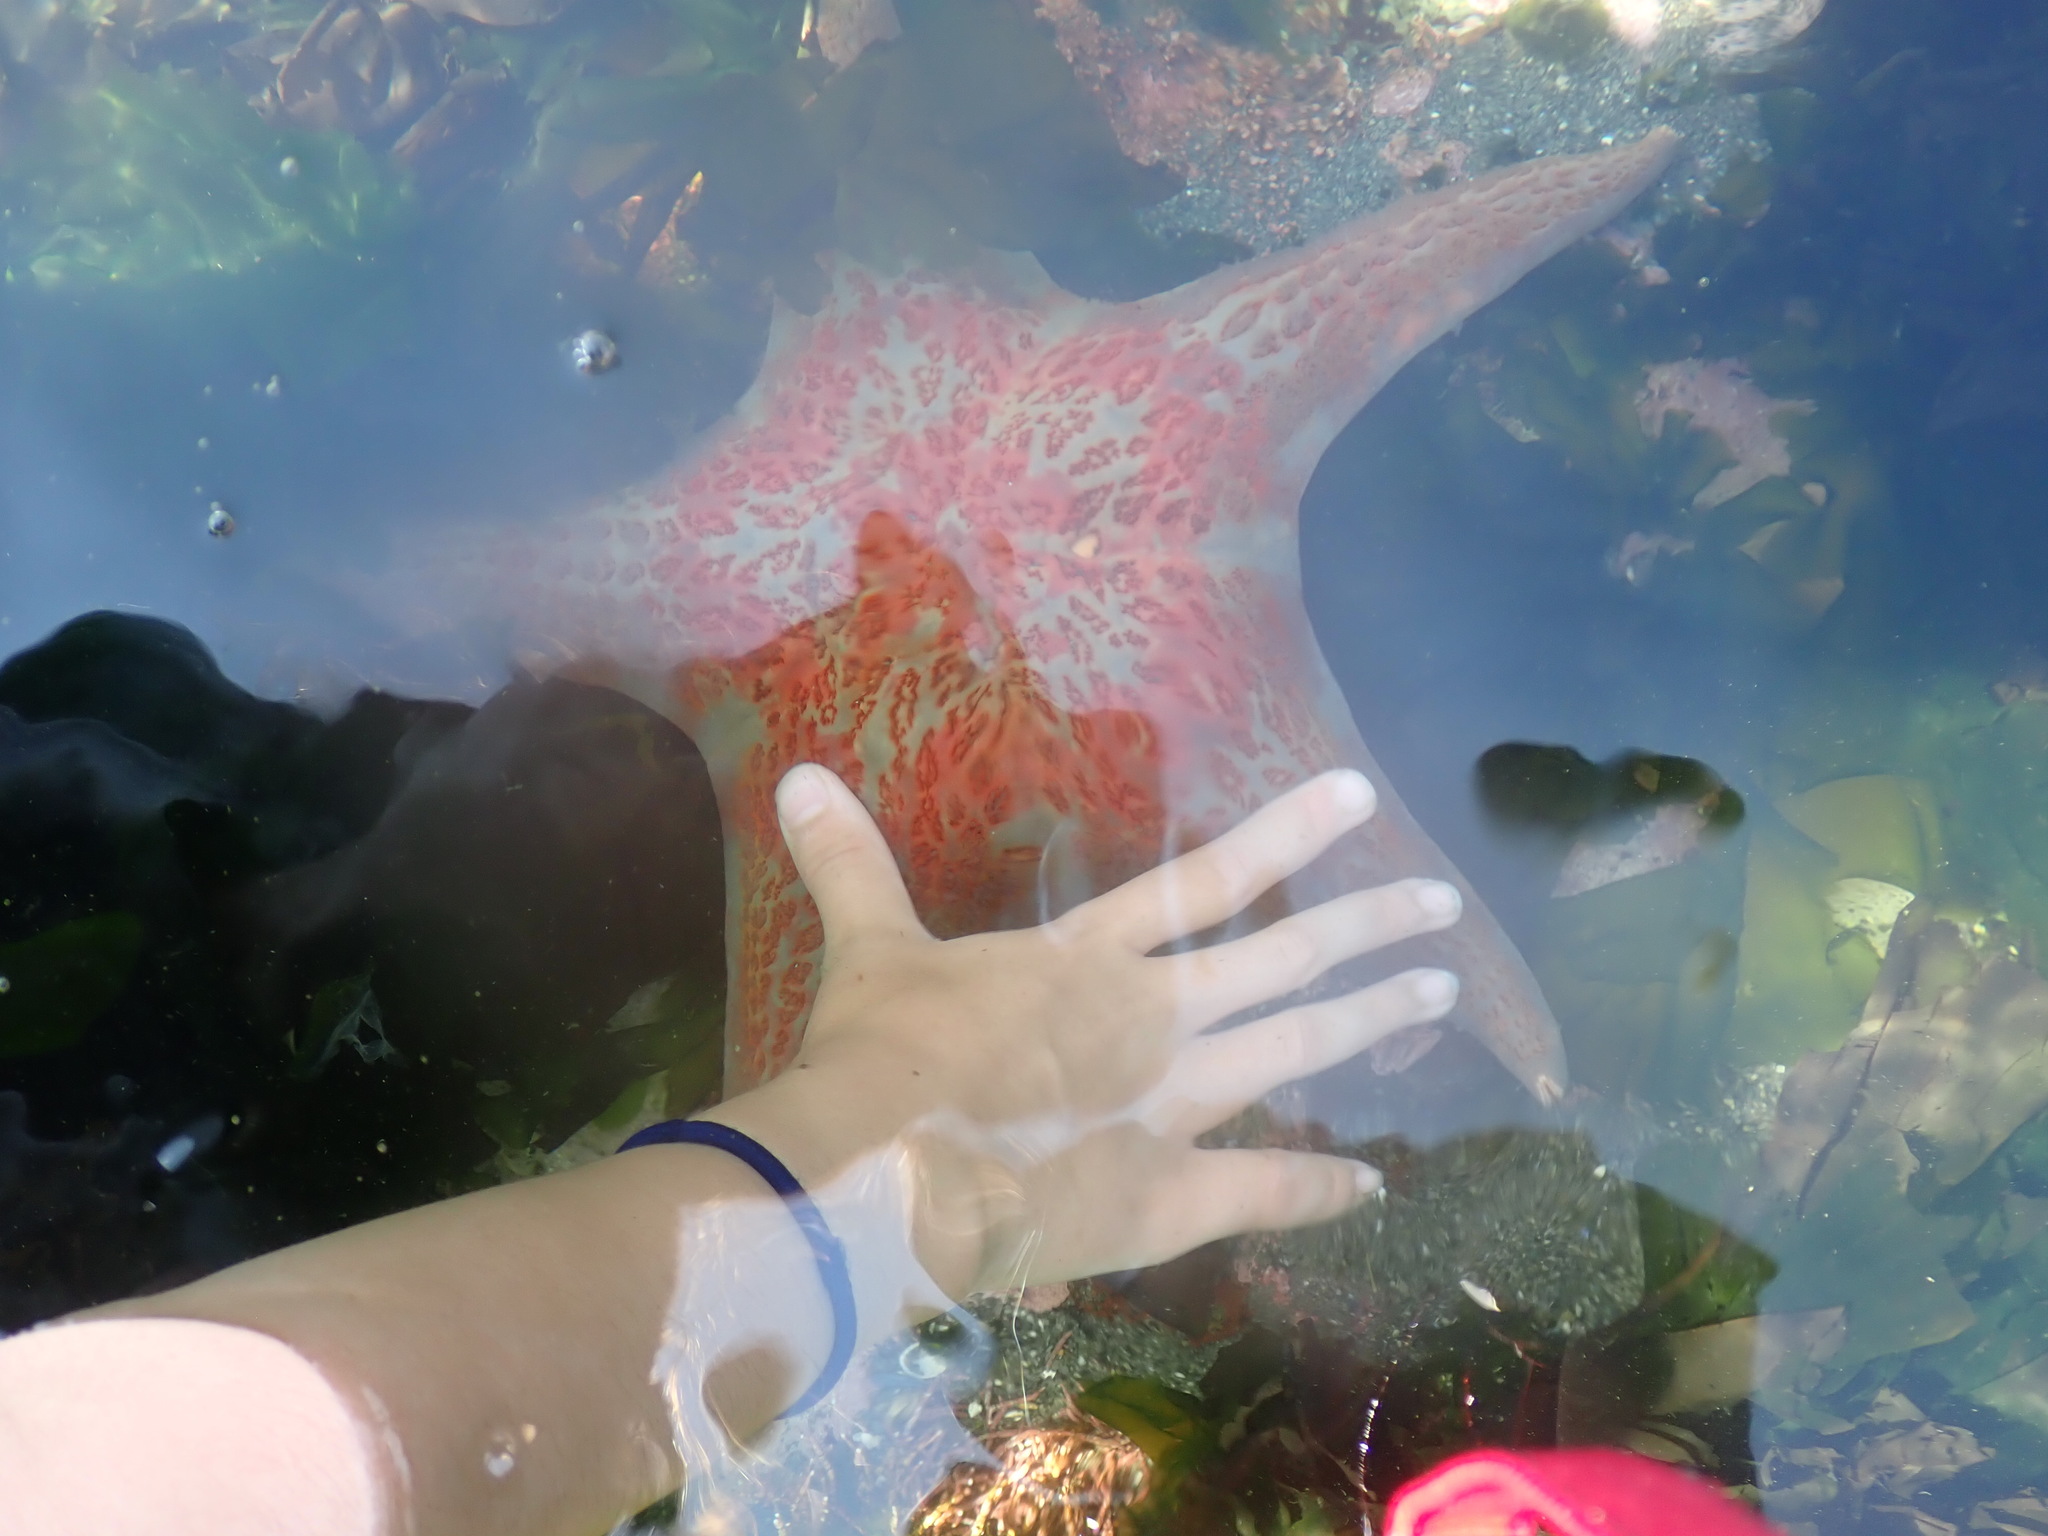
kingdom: Animalia
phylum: Echinodermata
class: Asteroidea
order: Valvatida
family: Asteropseidae
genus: Dermasterias
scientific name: Dermasterias imbricata
